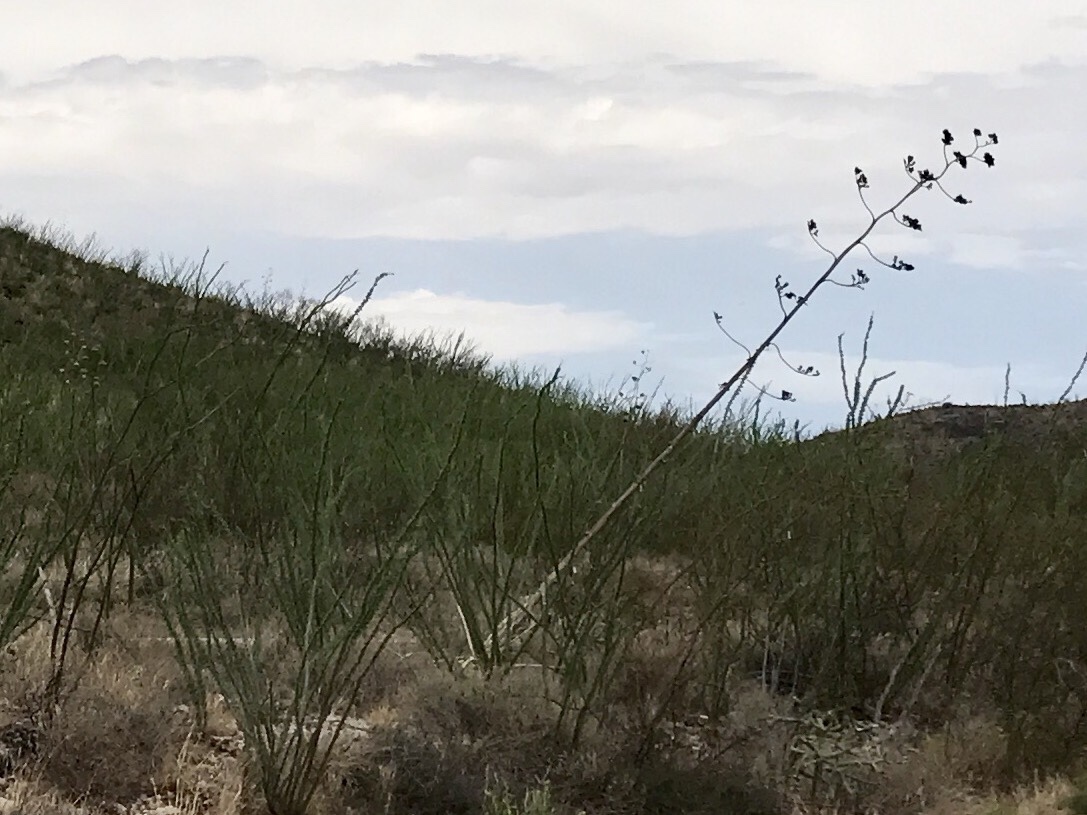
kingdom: Plantae
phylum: Tracheophyta
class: Liliopsida
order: Asparagales
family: Asparagaceae
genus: Agave
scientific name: Agave palmeri
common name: Palmer agave
